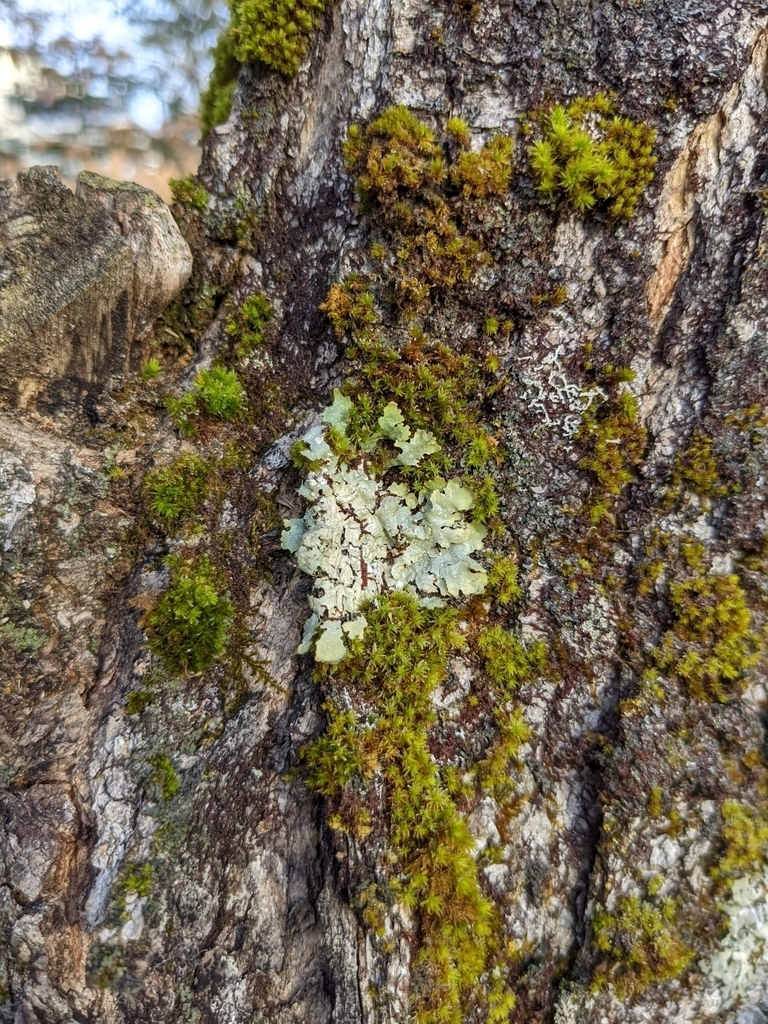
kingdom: Plantae
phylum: Bryophyta
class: Bryopsida
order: Orthotrichales
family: Orthotrichaceae
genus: Ulota
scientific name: Ulota crispa
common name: Crisped pincushion moss
